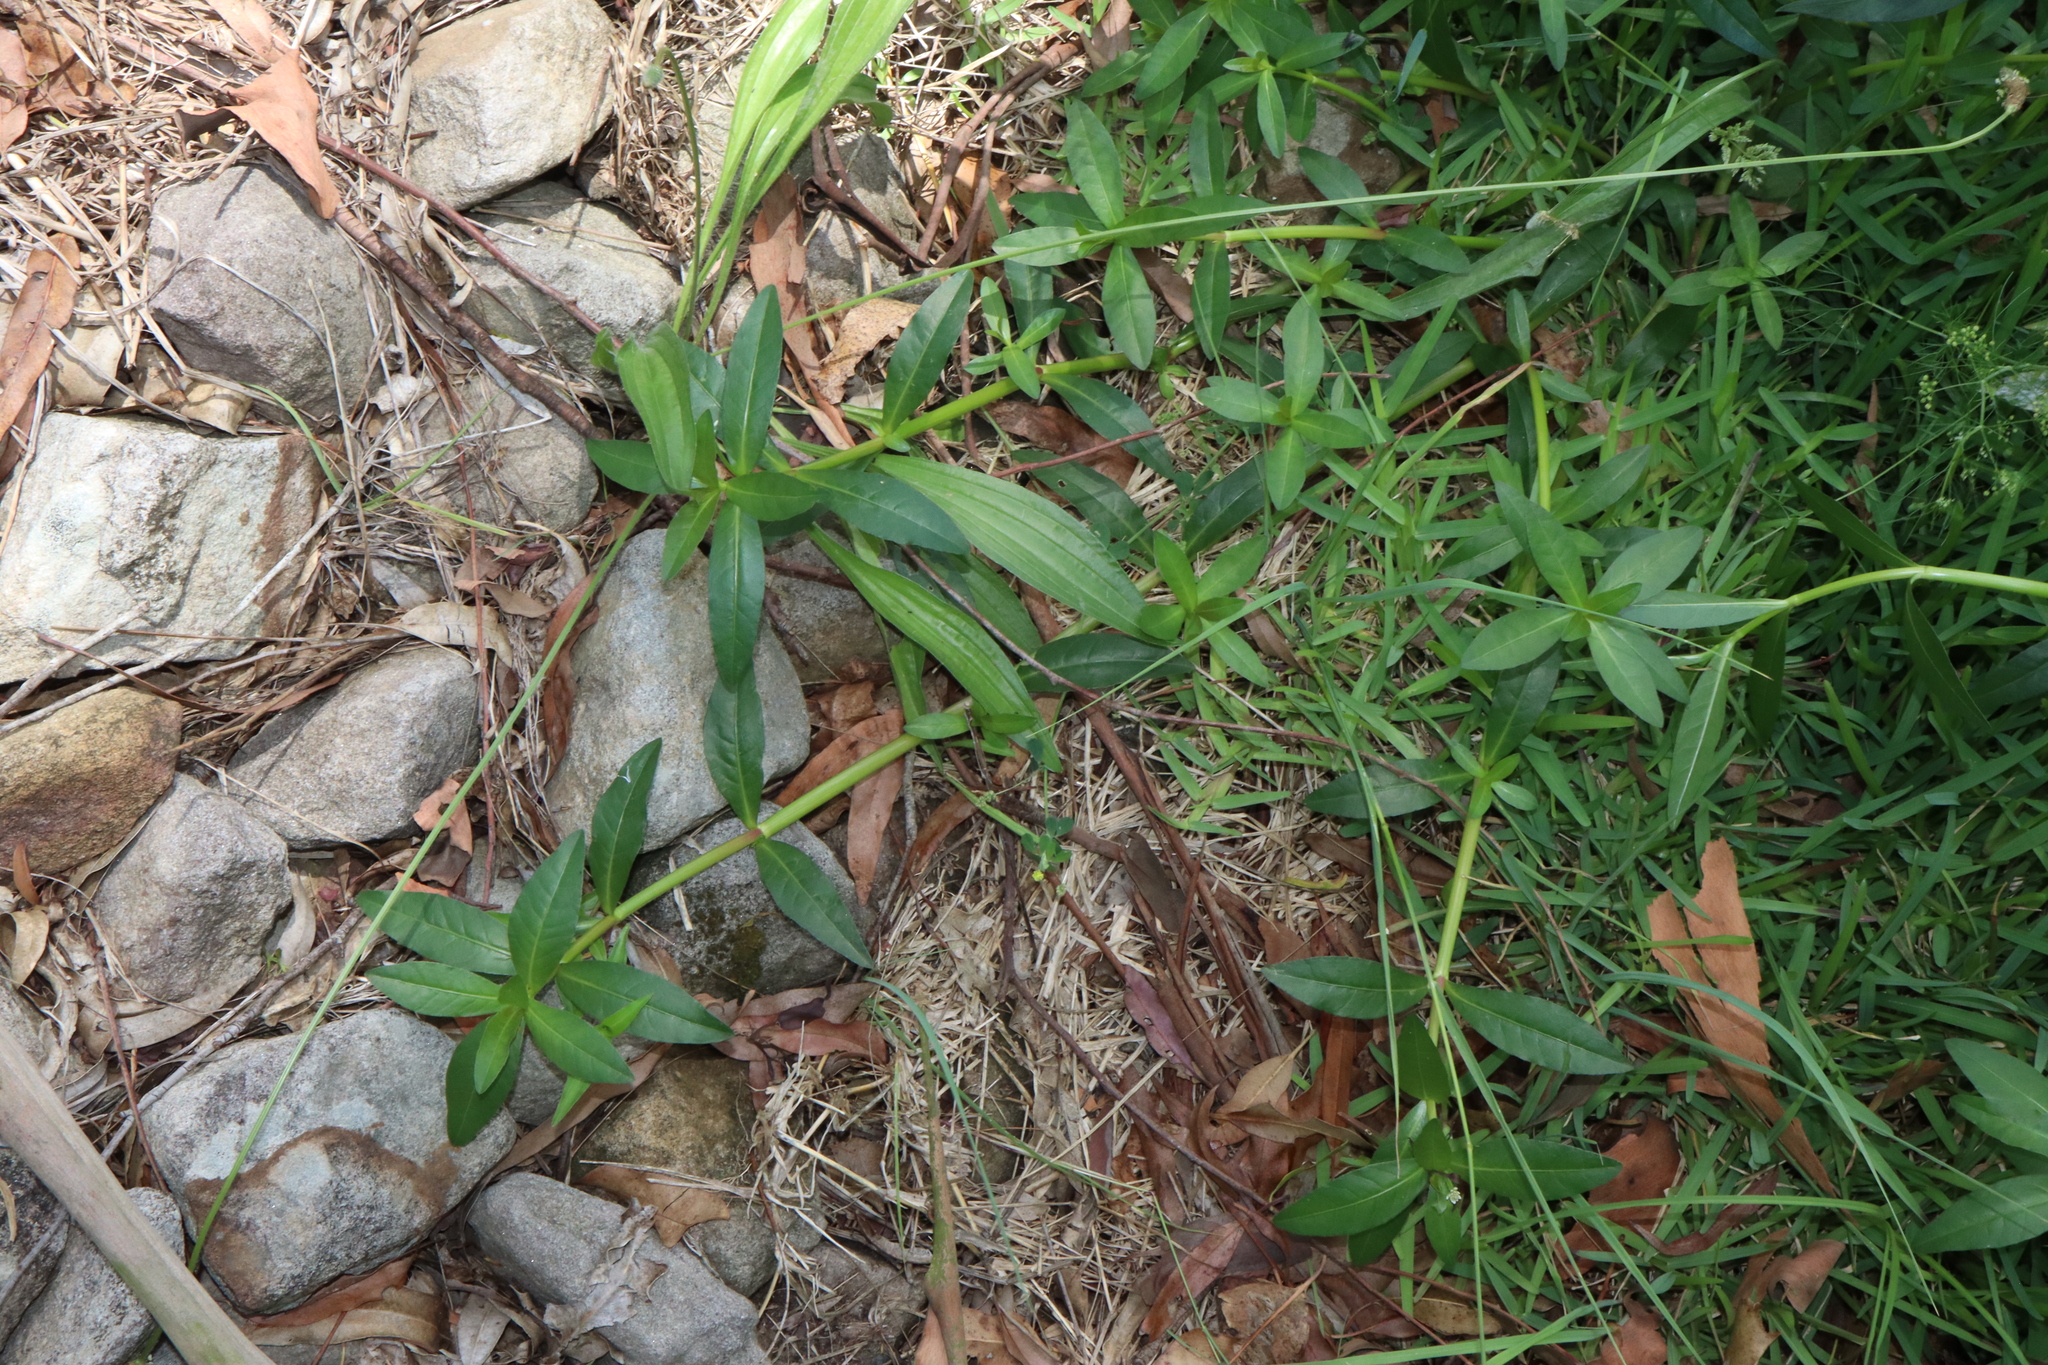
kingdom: Plantae
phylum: Tracheophyta
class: Magnoliopsida
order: Caryophyllales
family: Amaranthaceae
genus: Alternanthera
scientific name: Alternanthera philoxeroides
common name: Alligatorweed
